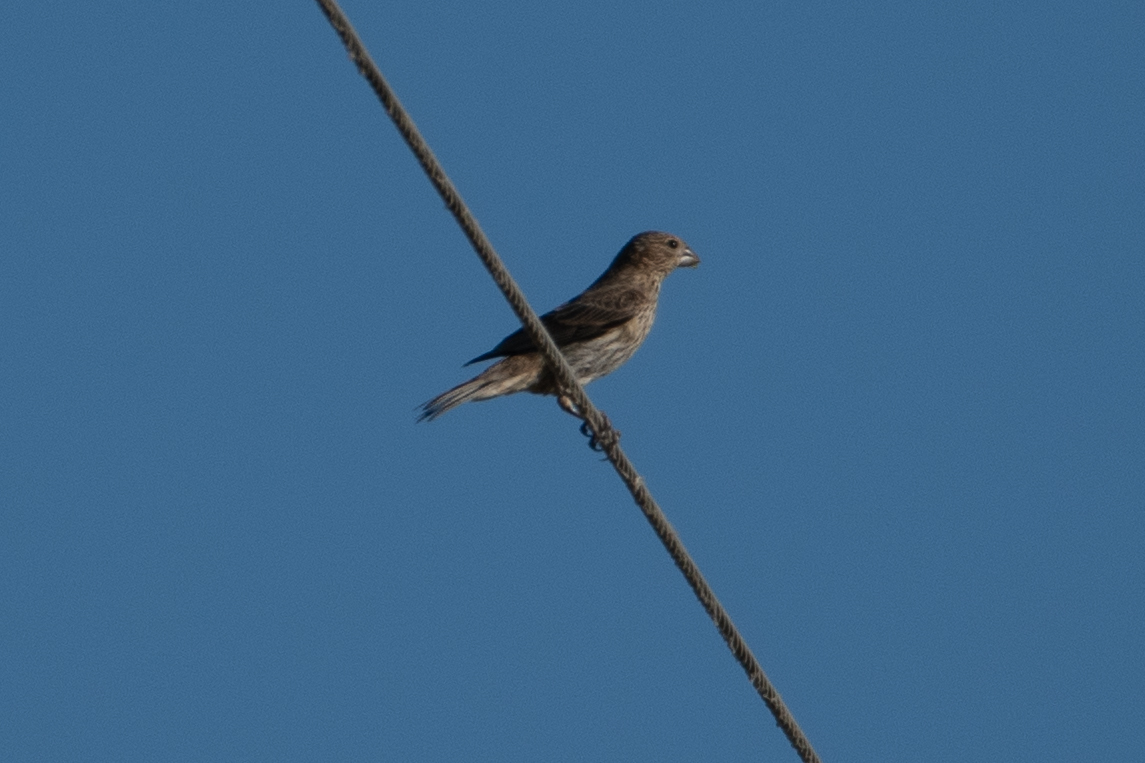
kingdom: Animalia
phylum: Chordata
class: Aves
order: Passeriformes
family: Fringillidae
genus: Haemorhous
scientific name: Haemorhous mexicanus
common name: House finch
